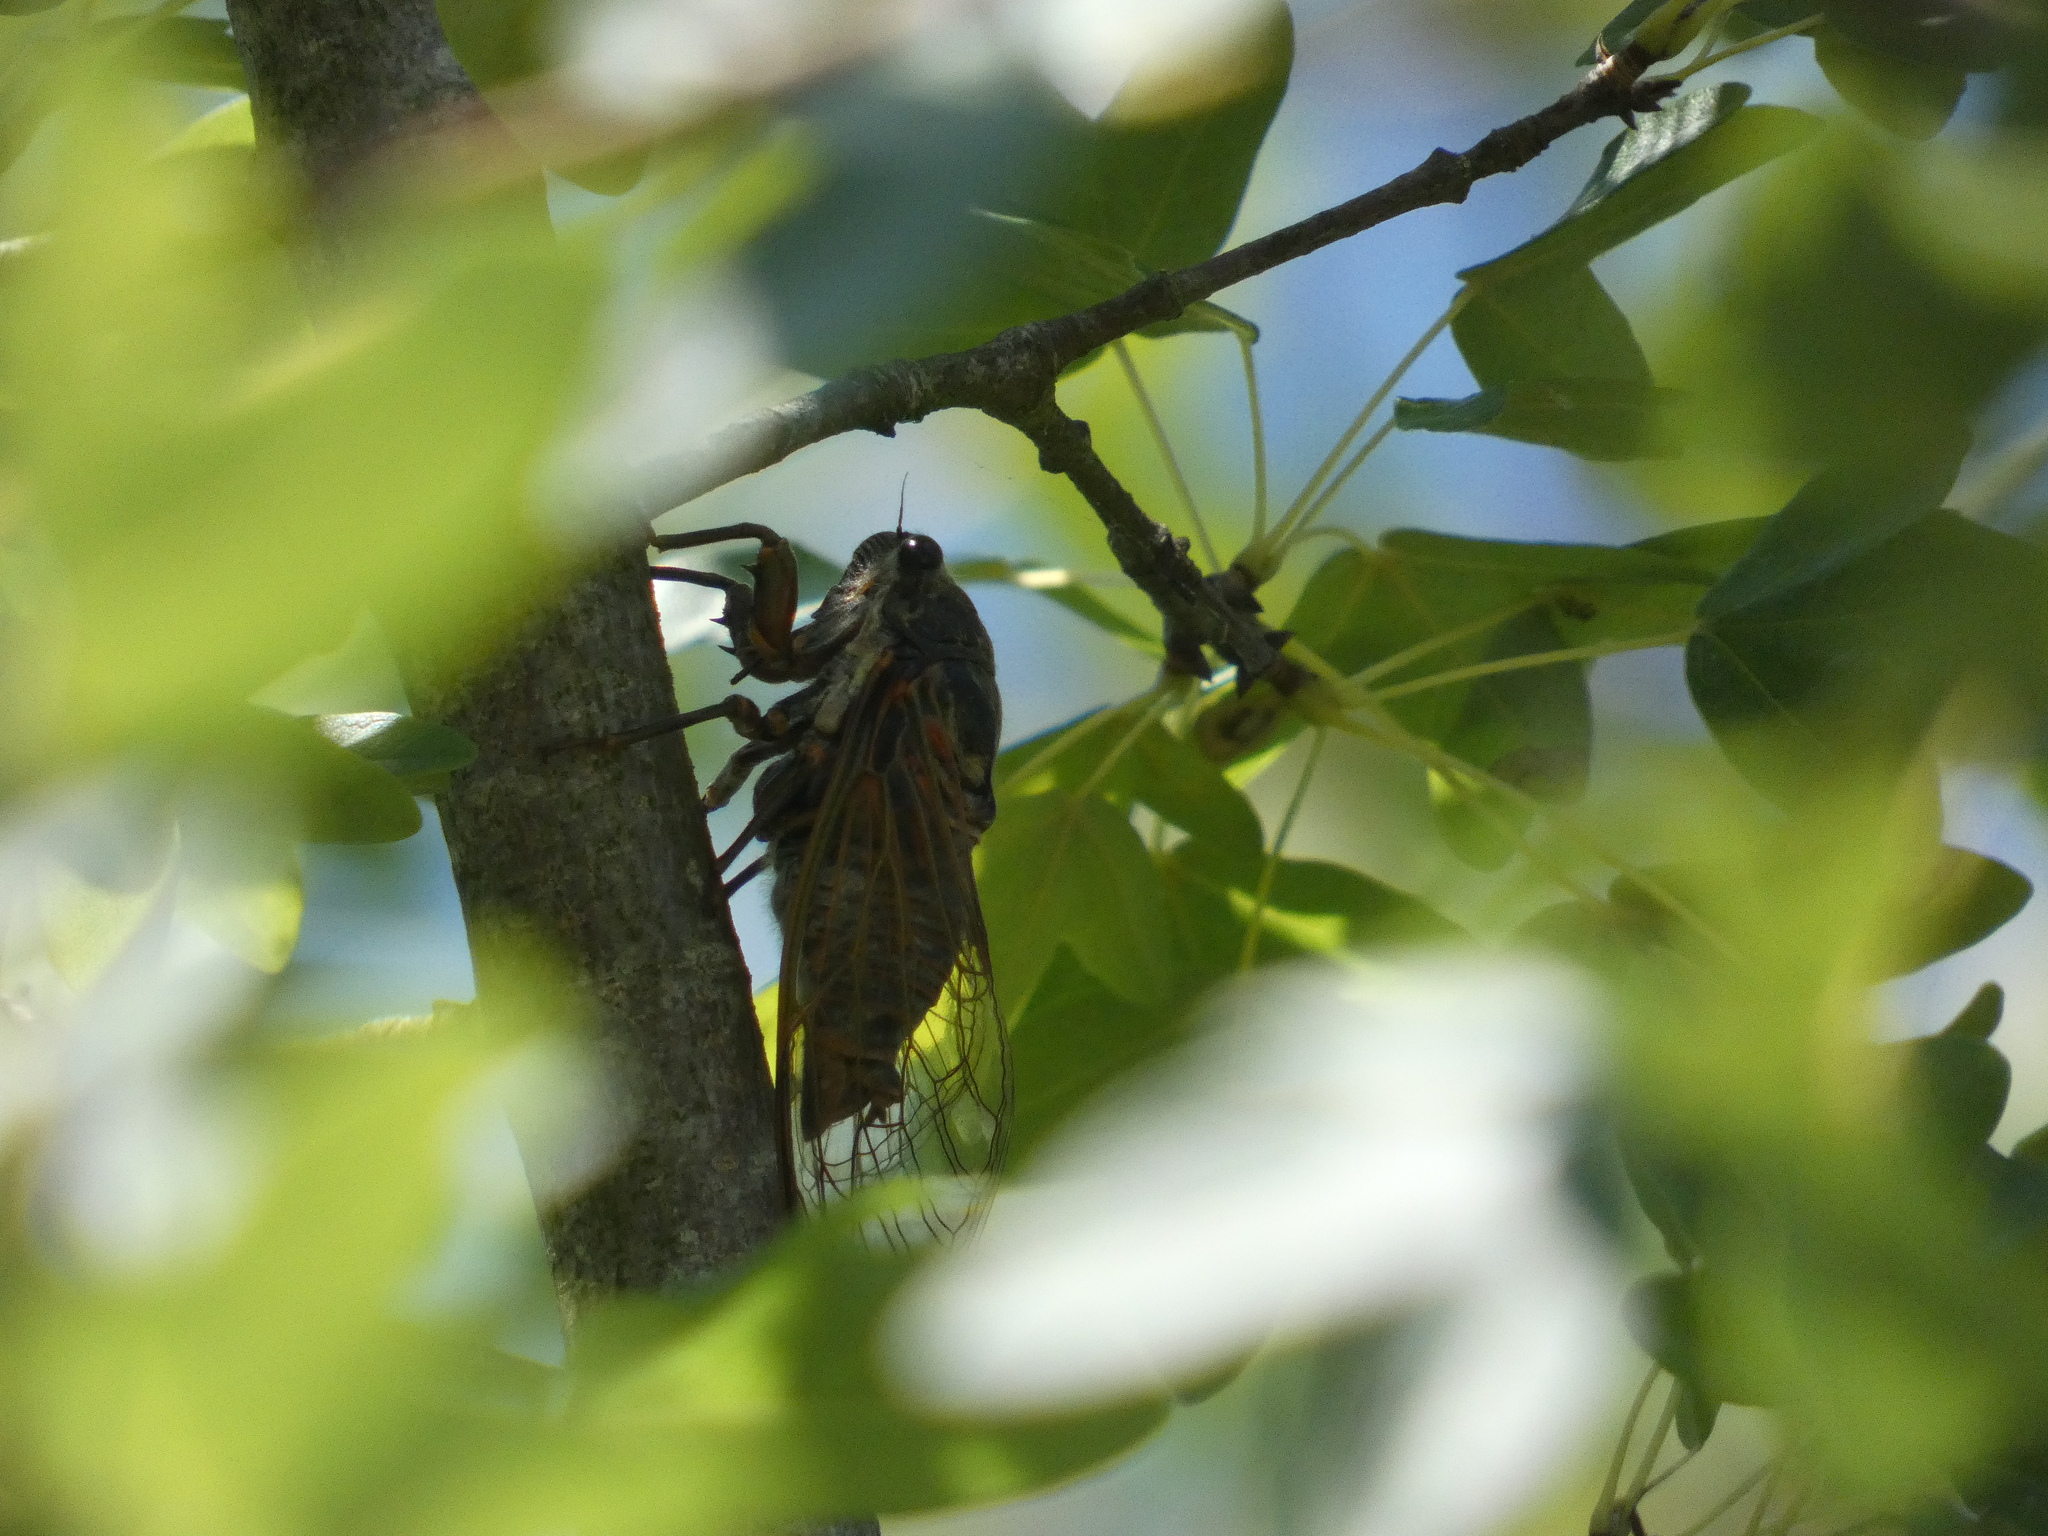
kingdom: Animalia
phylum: Arthropoda
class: Insecta
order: Hemiptera
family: Cicadidae
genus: Tibicina
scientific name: Tibicina haematodes
